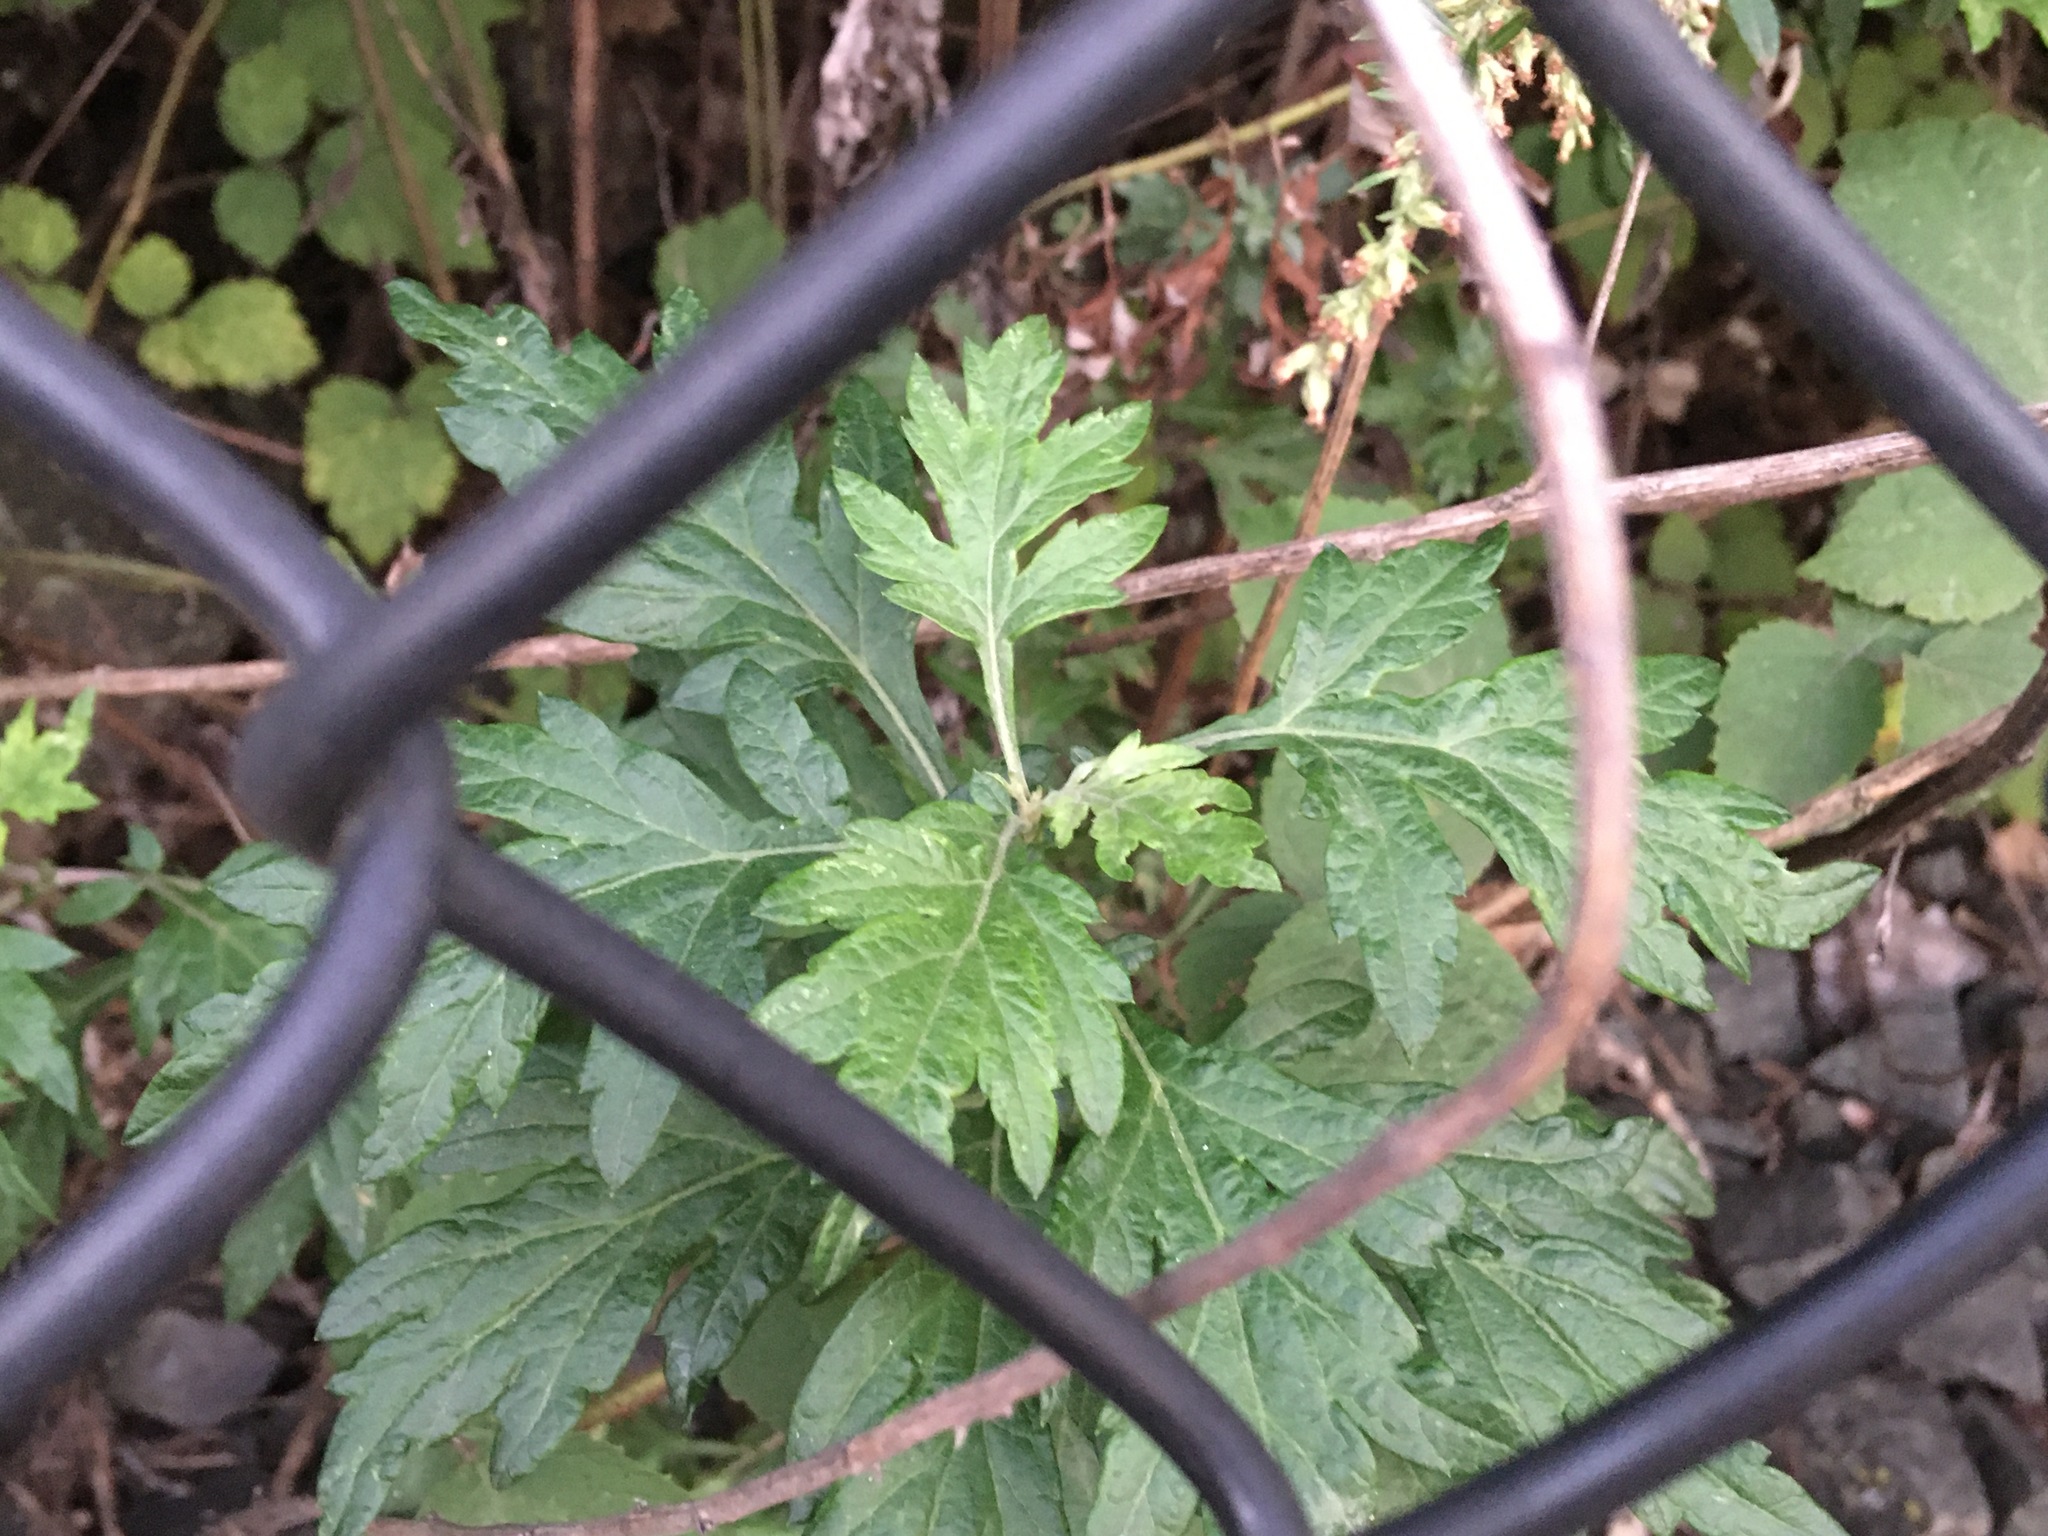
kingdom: Plantae
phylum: Tracheophyta
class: Magnoliopsida
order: Asterales
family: Asteraceae
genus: Artemisia
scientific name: Artemisia vulgaris
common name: Mugwort
